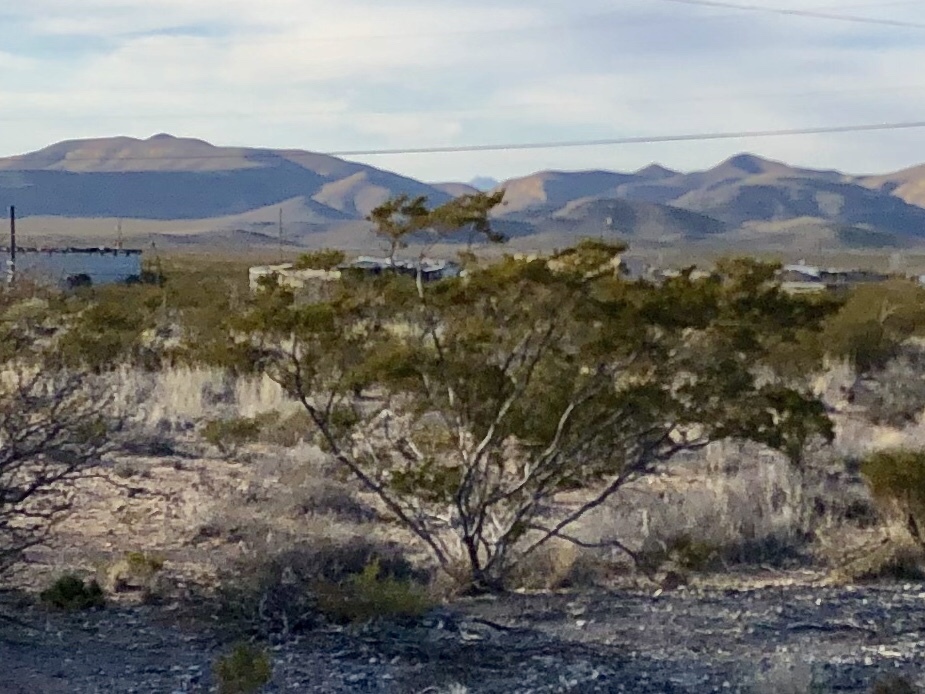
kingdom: Plantae
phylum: Tracheophyta
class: Magnoliopsida
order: Zygophyllales
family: Zygophyllaceae
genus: Larrea
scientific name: Larrea tridentata
